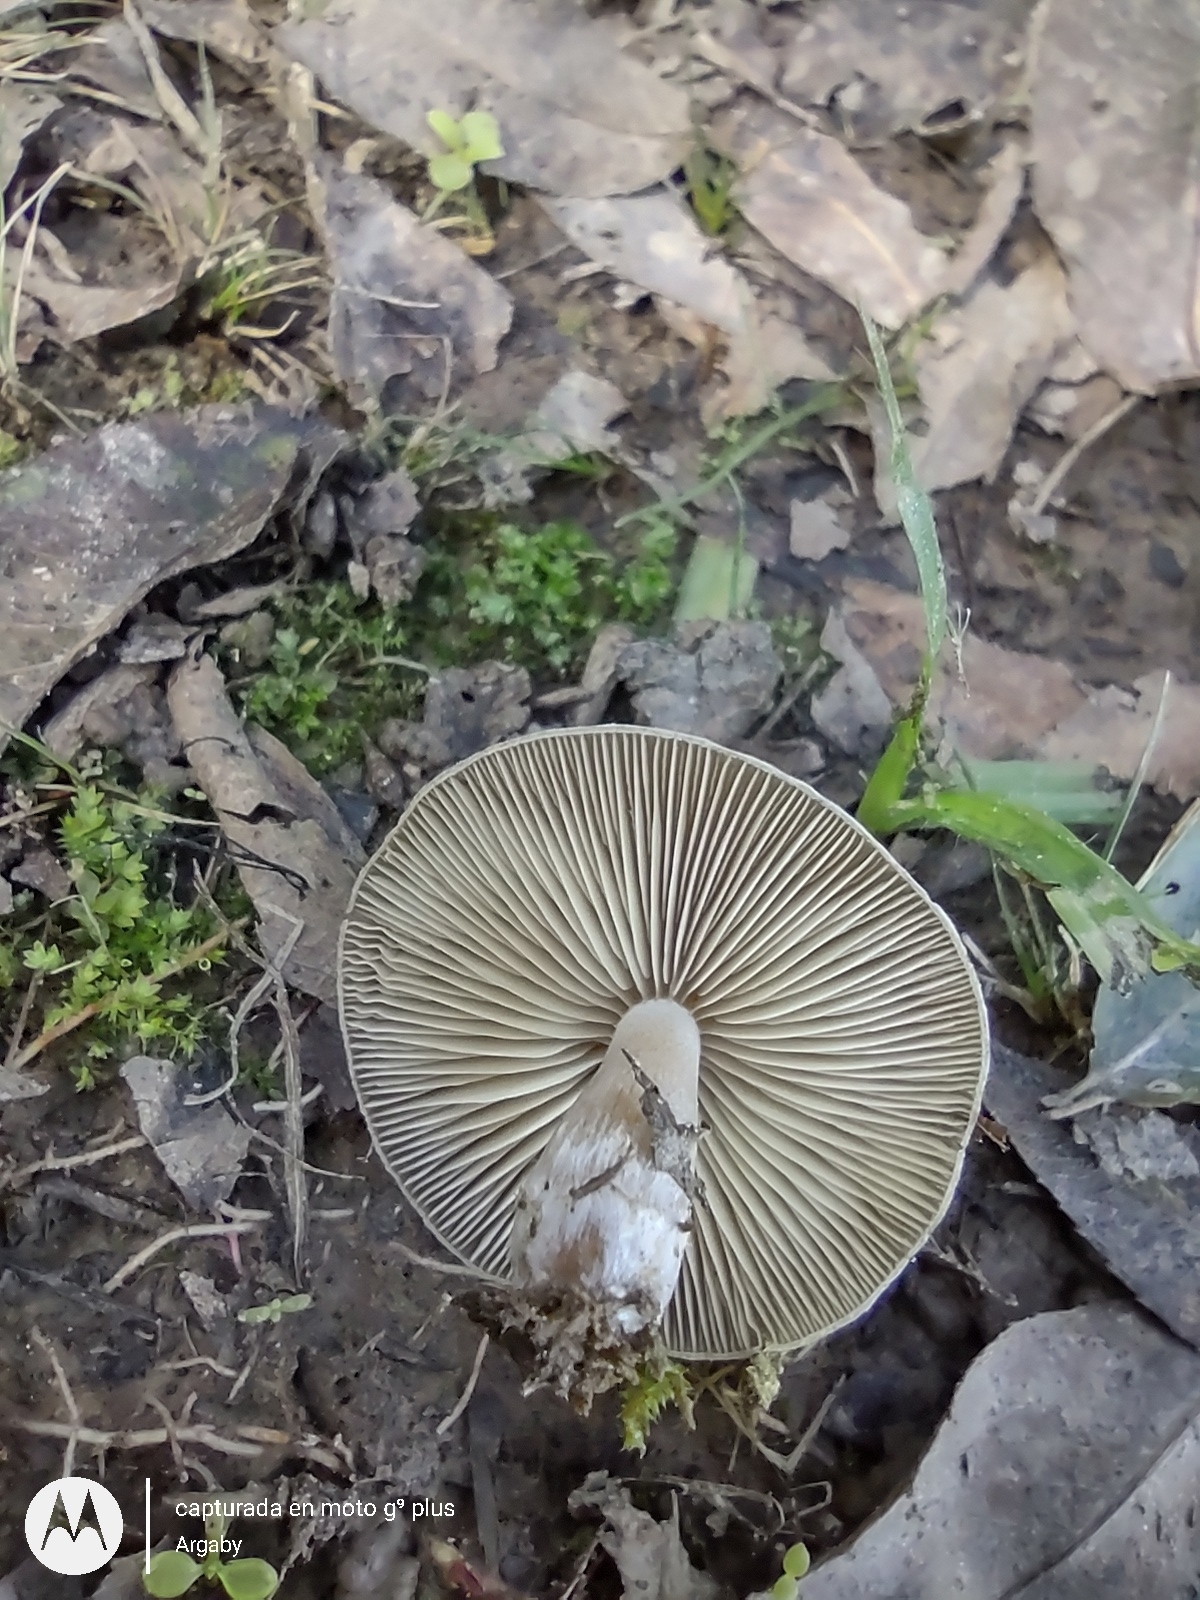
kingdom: Fungi
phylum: Basidiomycota
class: Agaricomycetes
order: Agaricales
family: Tubariaceae
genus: Cyclocybe
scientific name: Cyclocybe erebia
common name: Dark fieldcap
